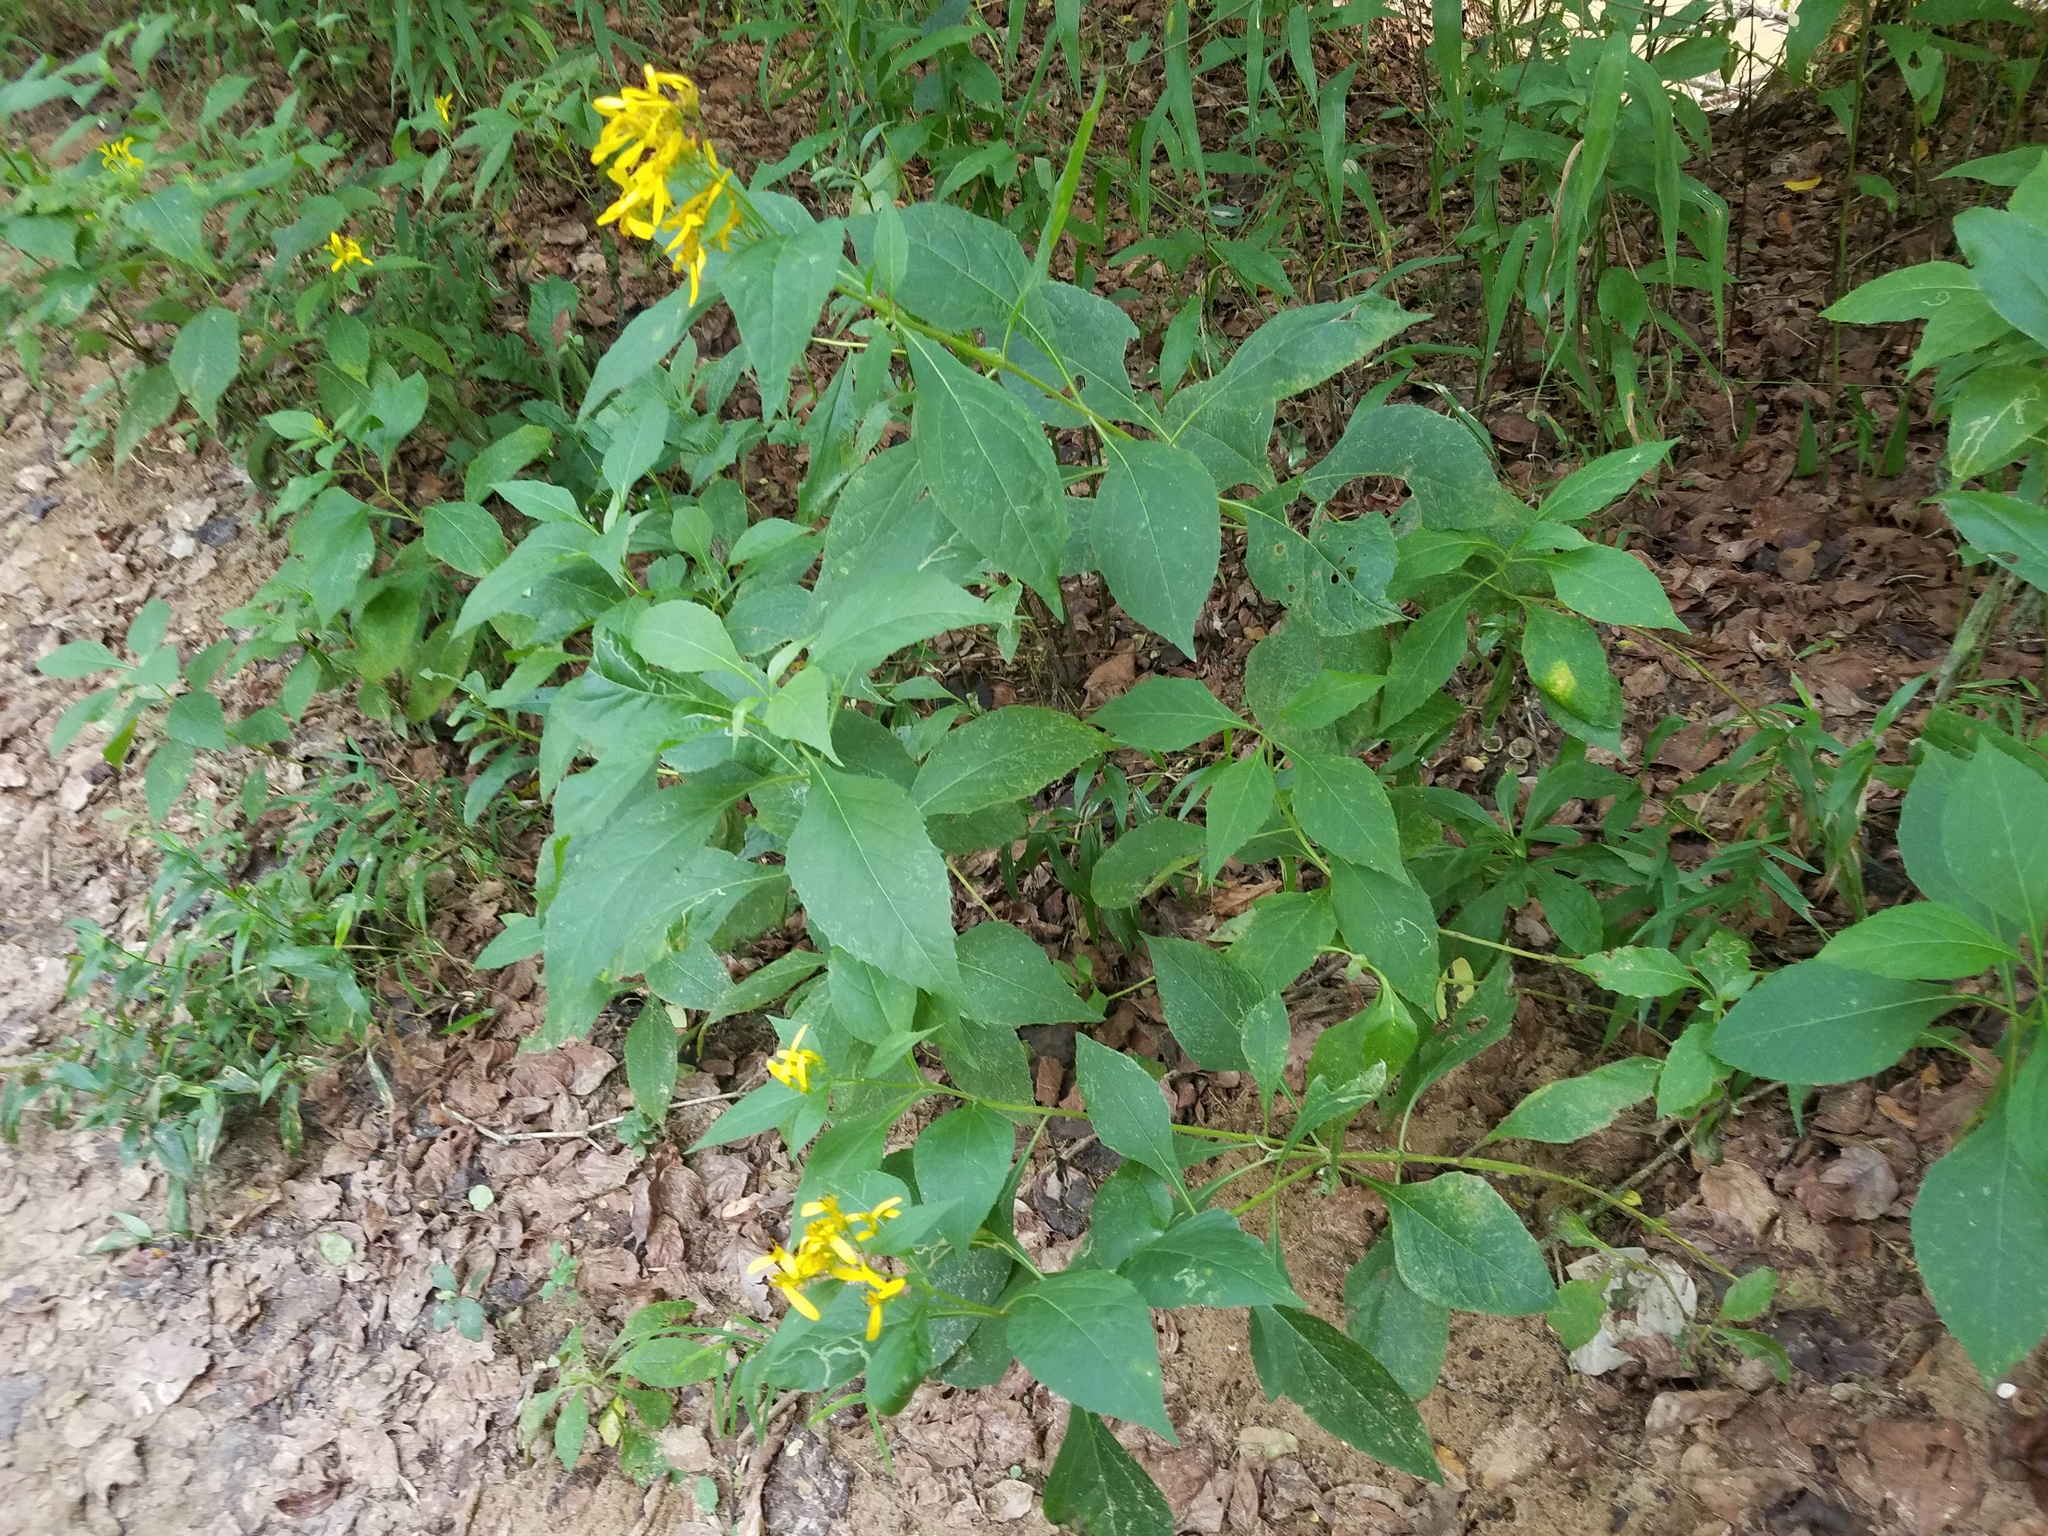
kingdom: Plantae
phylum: Tracheophyta
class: Magnoliopsida
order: Asterales
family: Asteraceae
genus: Verbesina
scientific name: Verbesina occidentalis
